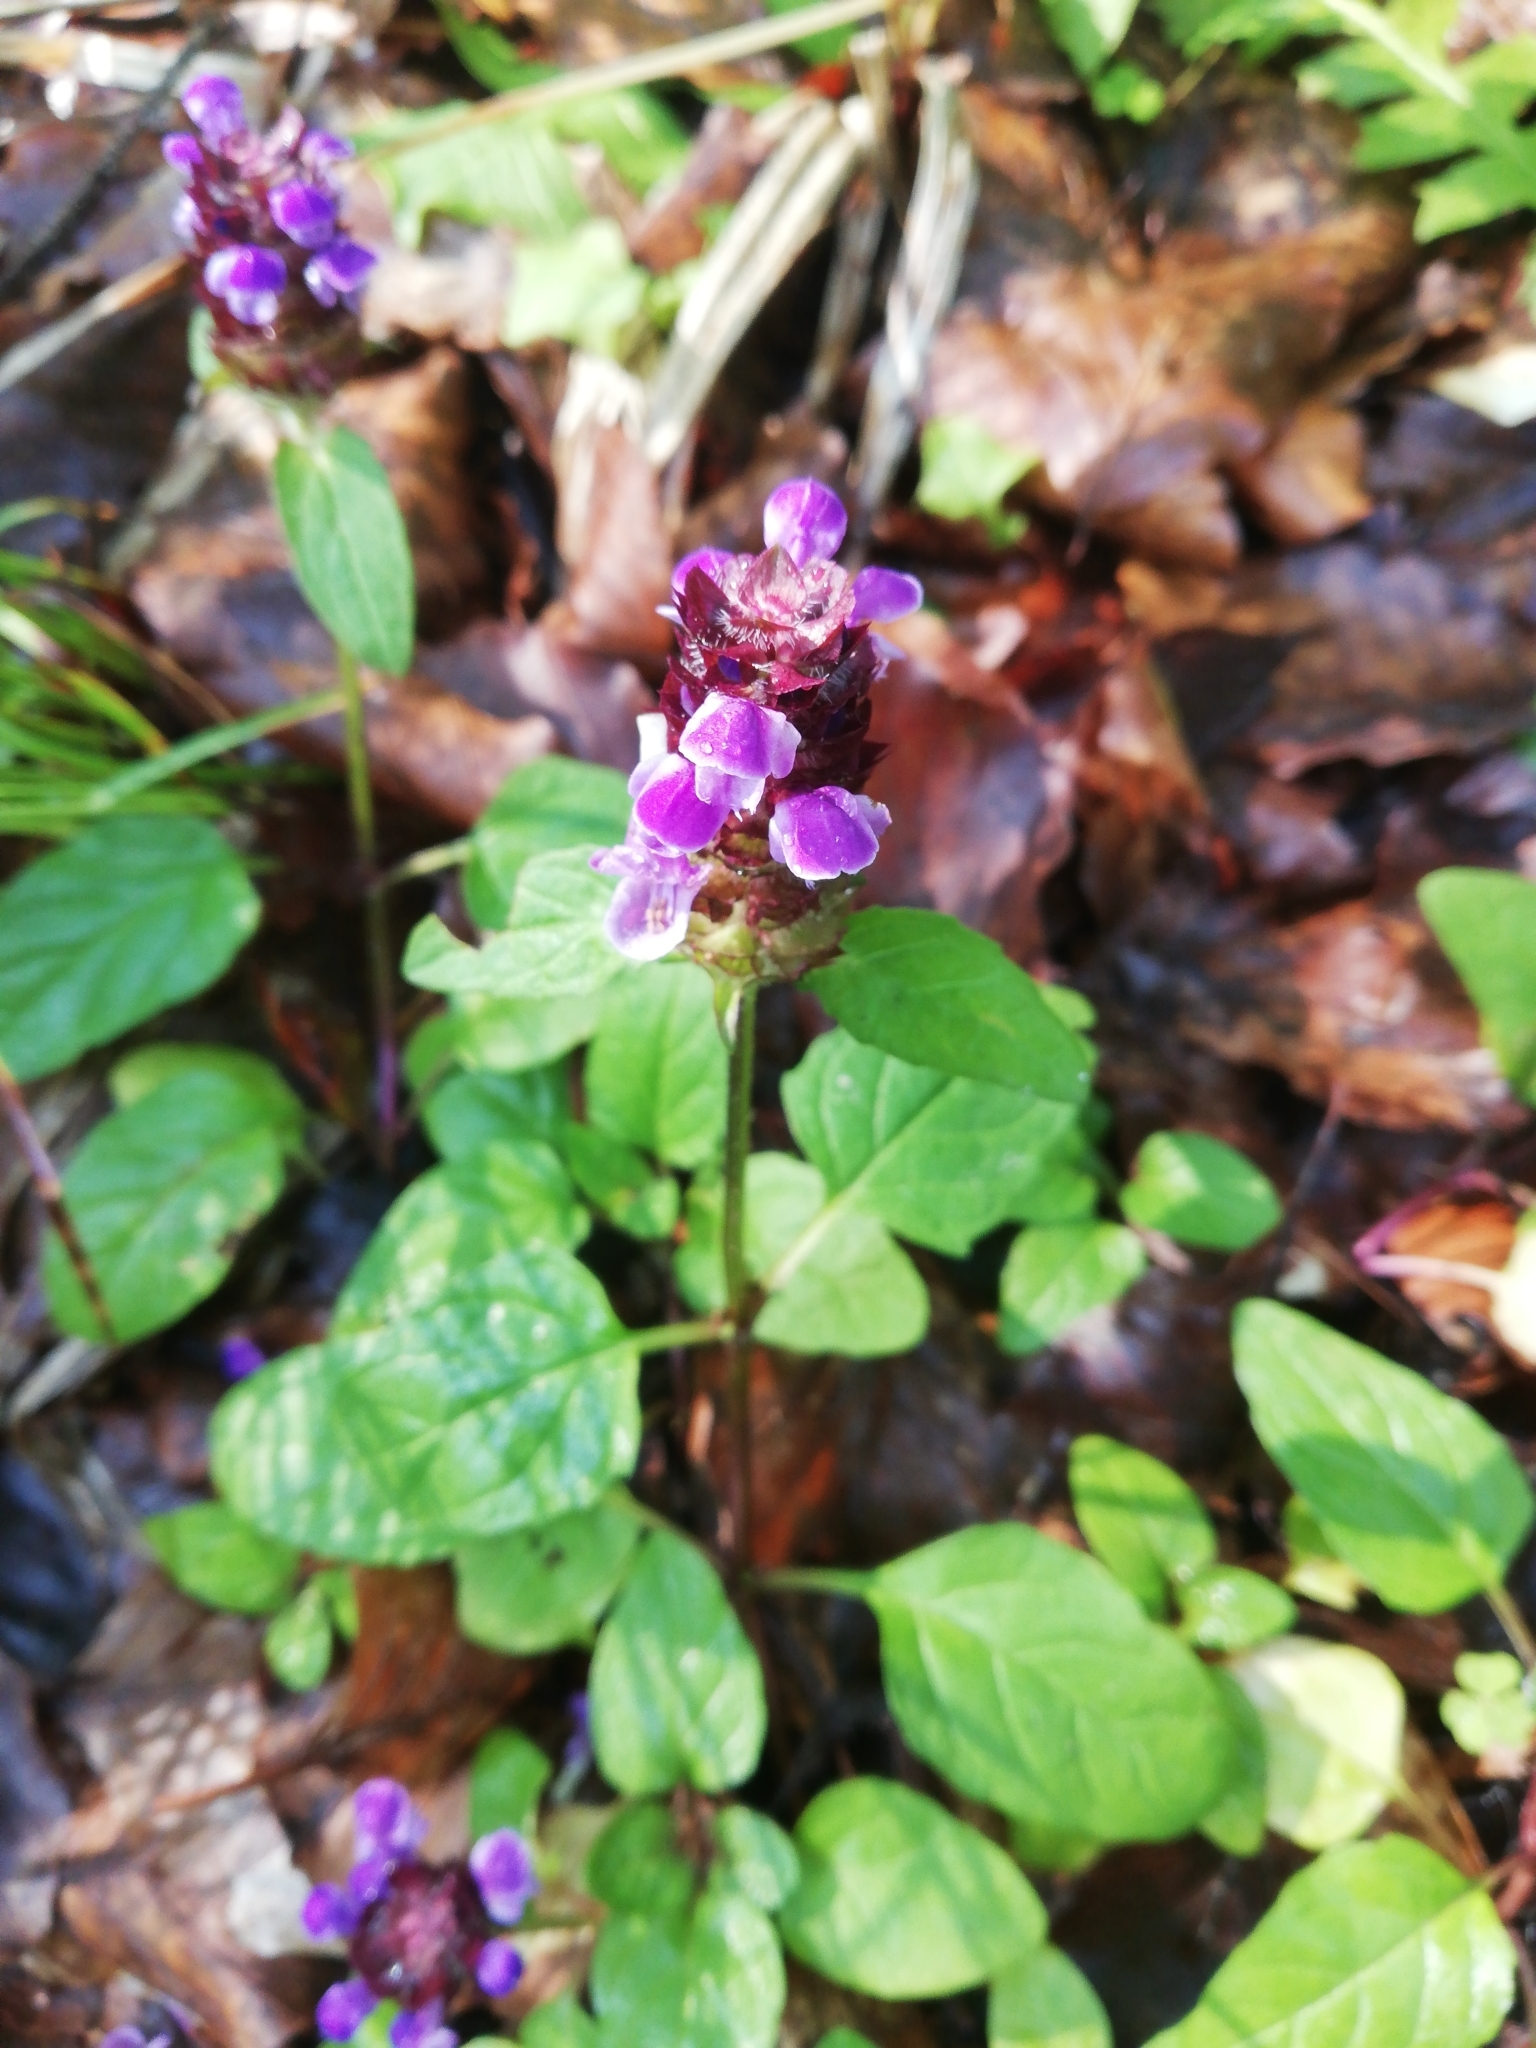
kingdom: Plantae
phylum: Tracheophyta
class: Magnoliopsida
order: Lamiales
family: Lamiaceae
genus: Prunella
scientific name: Prunella vulgaris
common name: Heal-all
